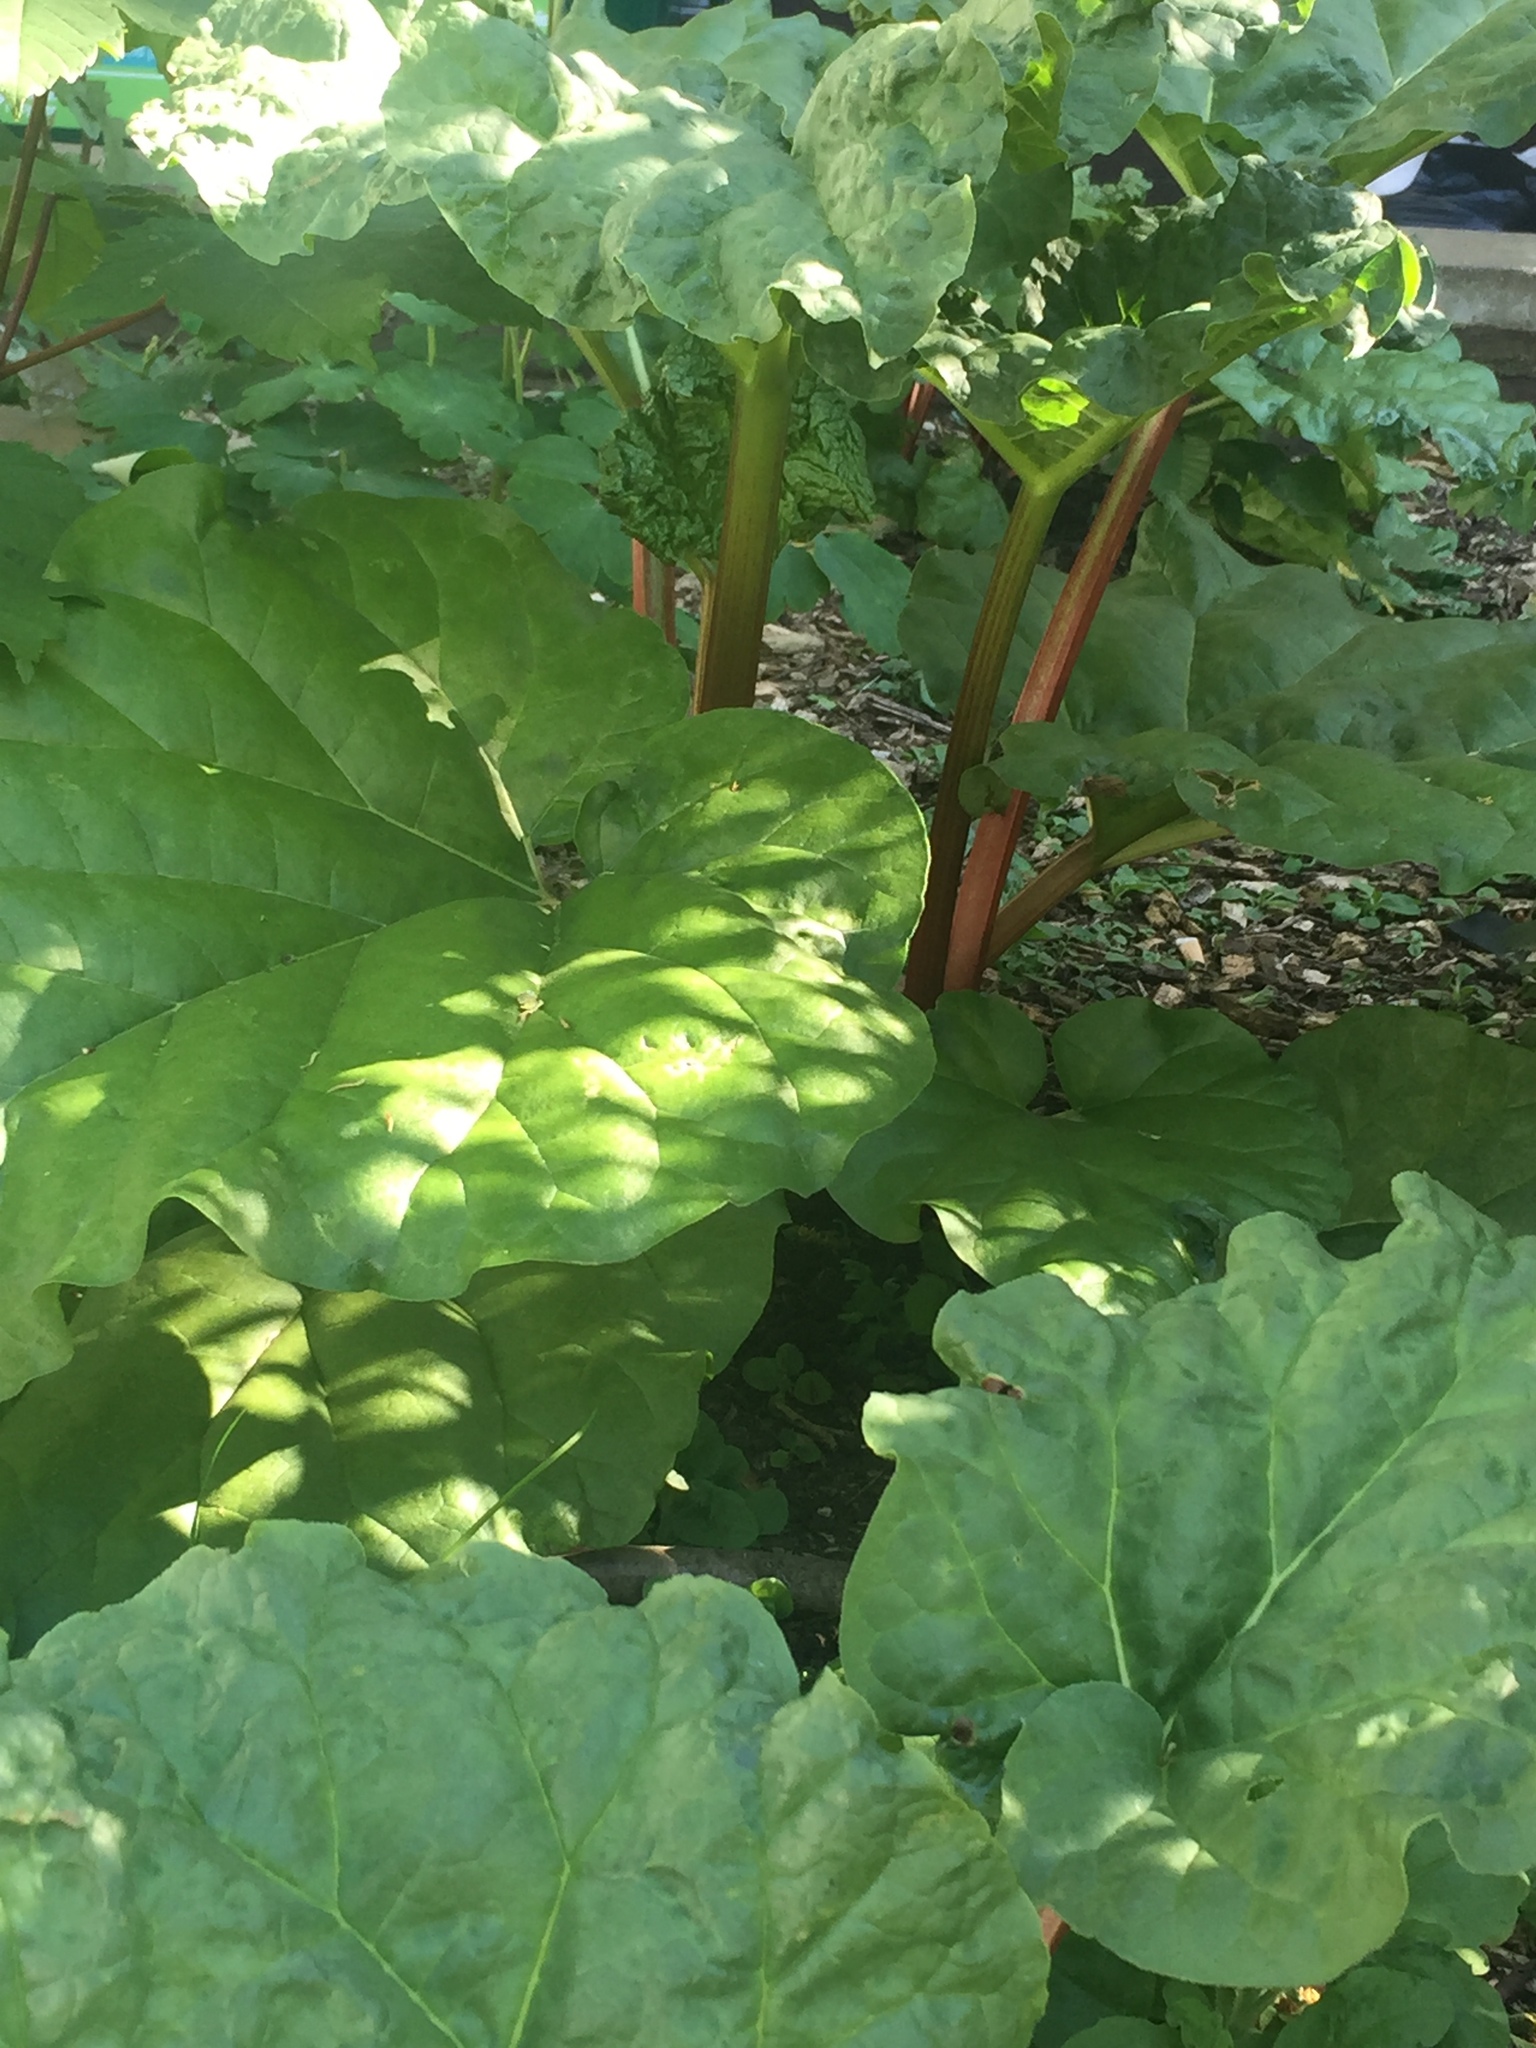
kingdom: Plantae
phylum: Tracheophyta
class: Magnoliopsida
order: Caryophyllales
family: Polygonaceae
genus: Rheum
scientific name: Rheum rhabarbarum
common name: Garden rhubarb
